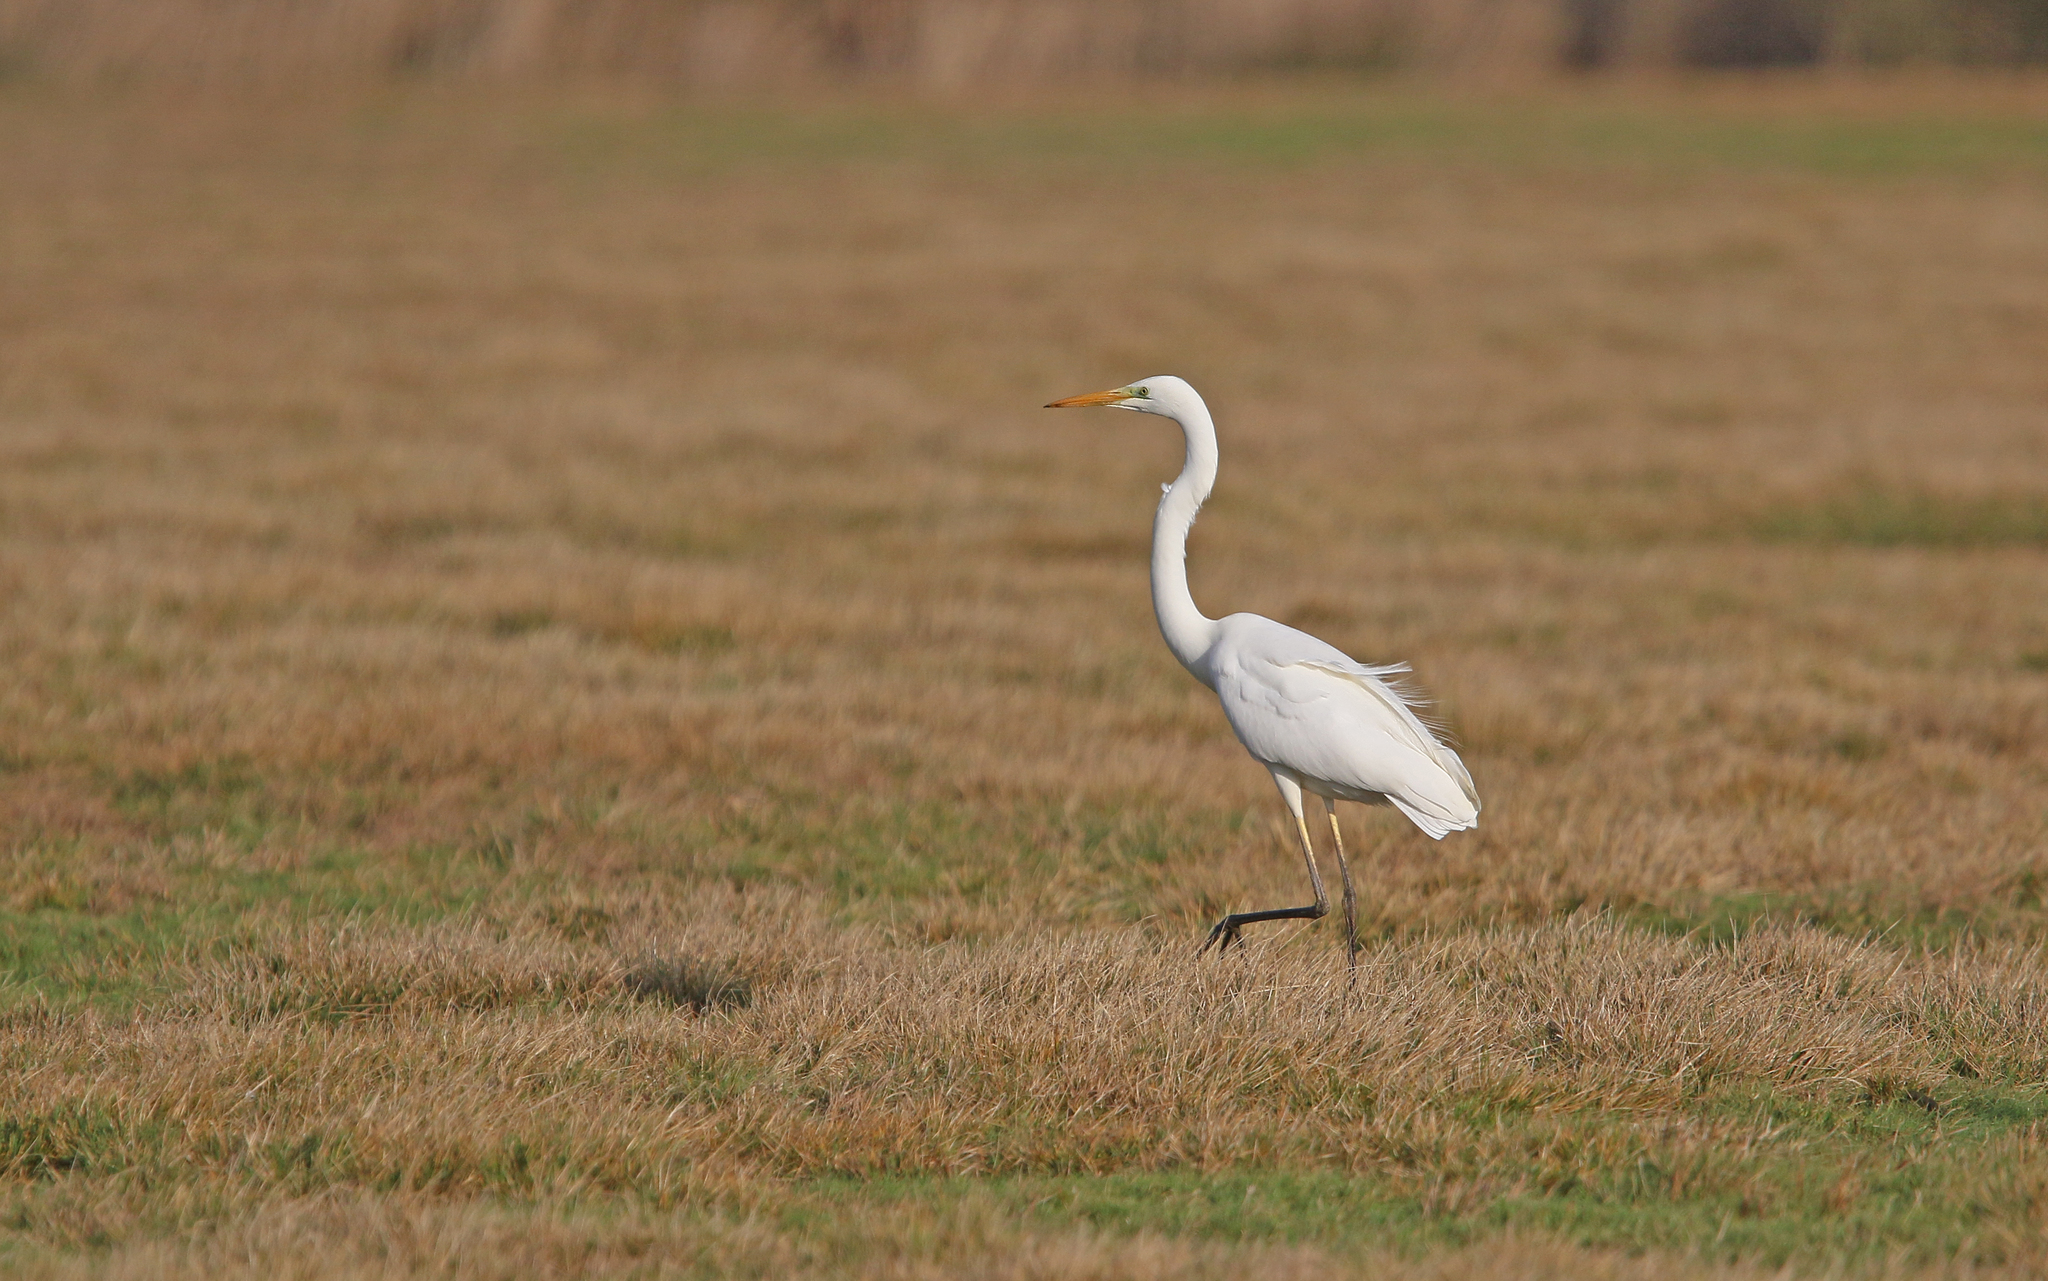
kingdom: Animalia
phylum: Chordata
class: Aves
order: Pelecaniformes
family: Ardeidae
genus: Ardea
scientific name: Ardea alba
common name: Great egret
